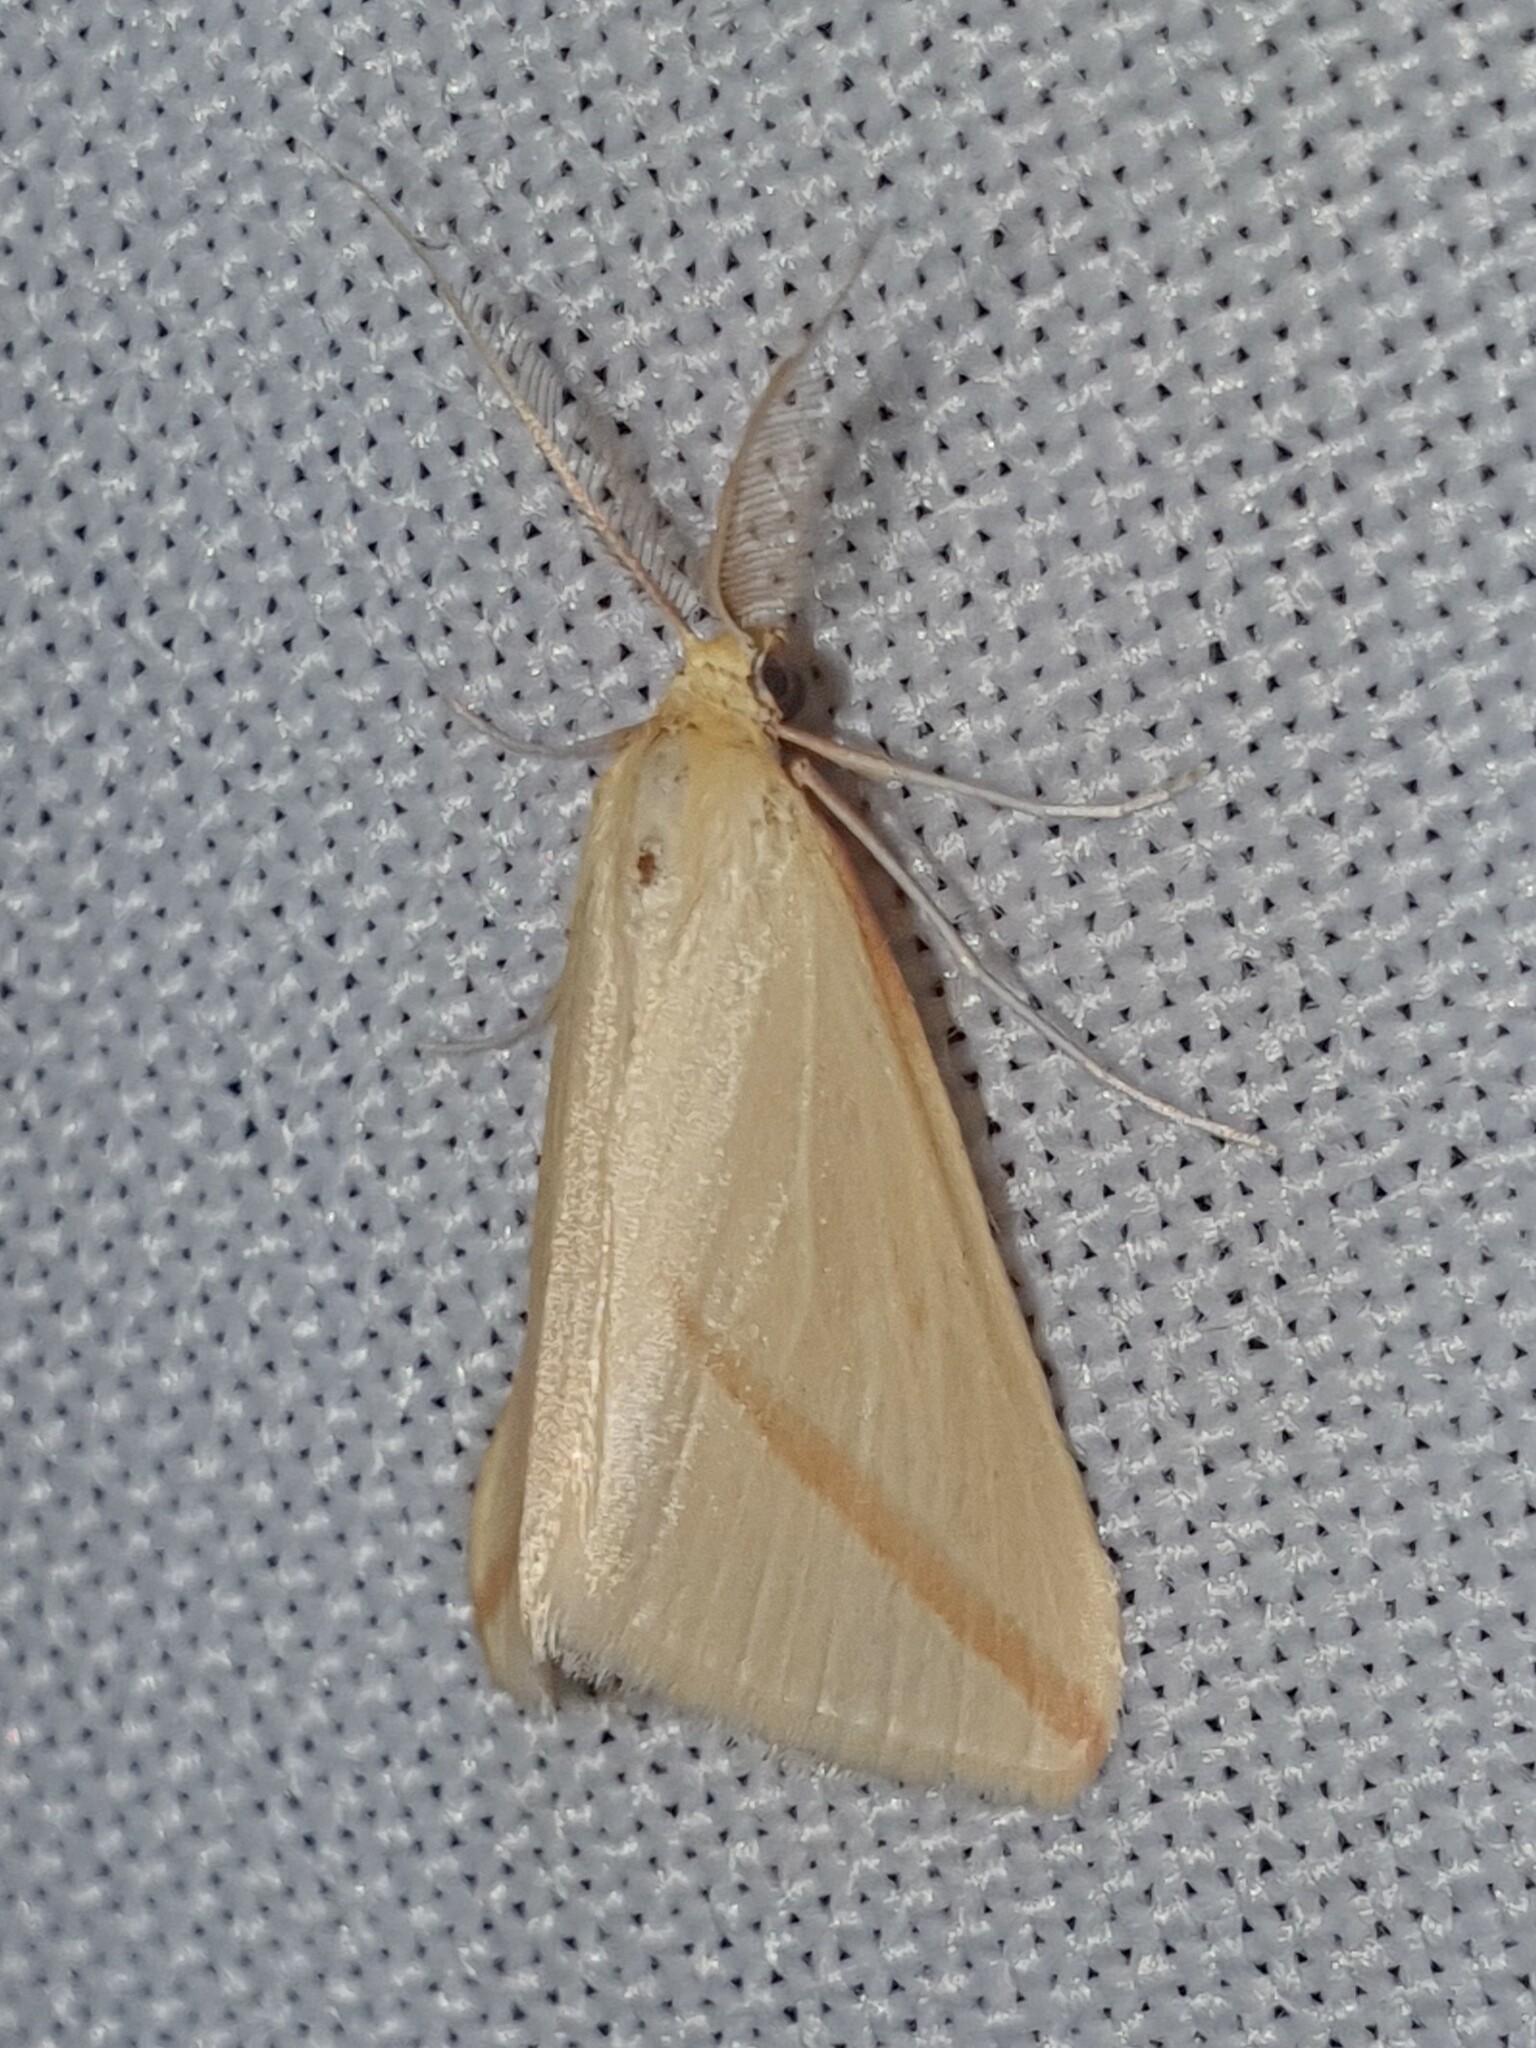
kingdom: Animalia
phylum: Arthropoda
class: Insecta
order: Lepidoptera
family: Geometridae
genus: Rhodometra
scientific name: Rhodometra sacraria
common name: Vestal
